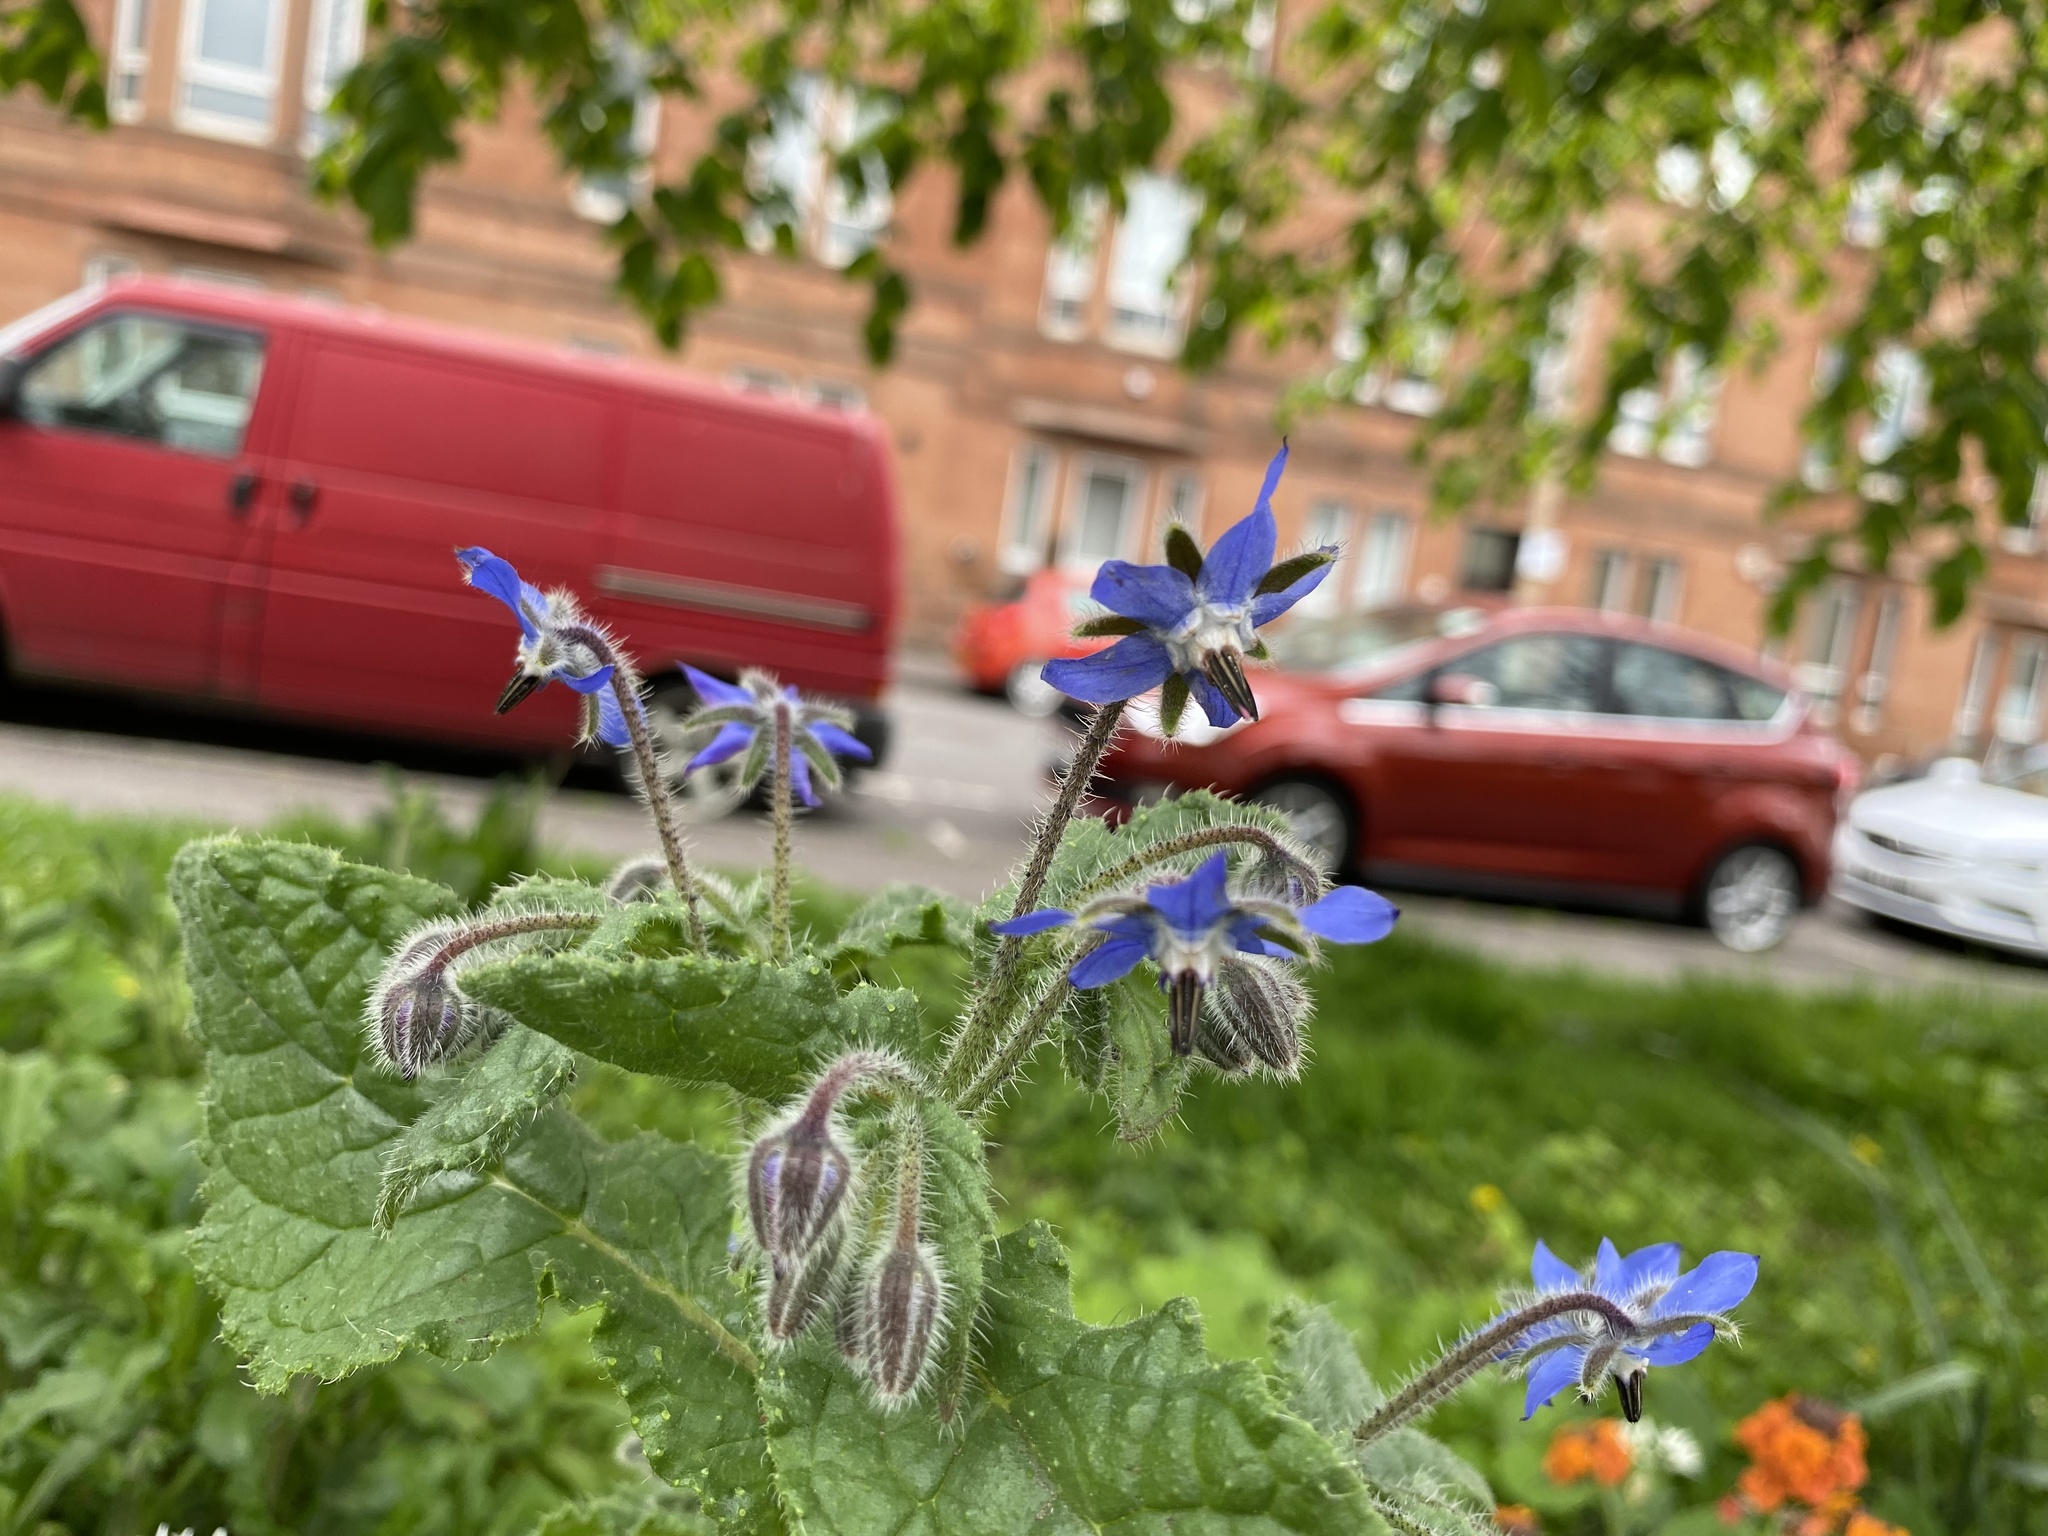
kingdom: Plantae
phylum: Tracheophyta
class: Magnoliopsida
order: Boraginales
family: Boraginaceae
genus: Borago
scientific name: Borago officinalis
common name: Borage
